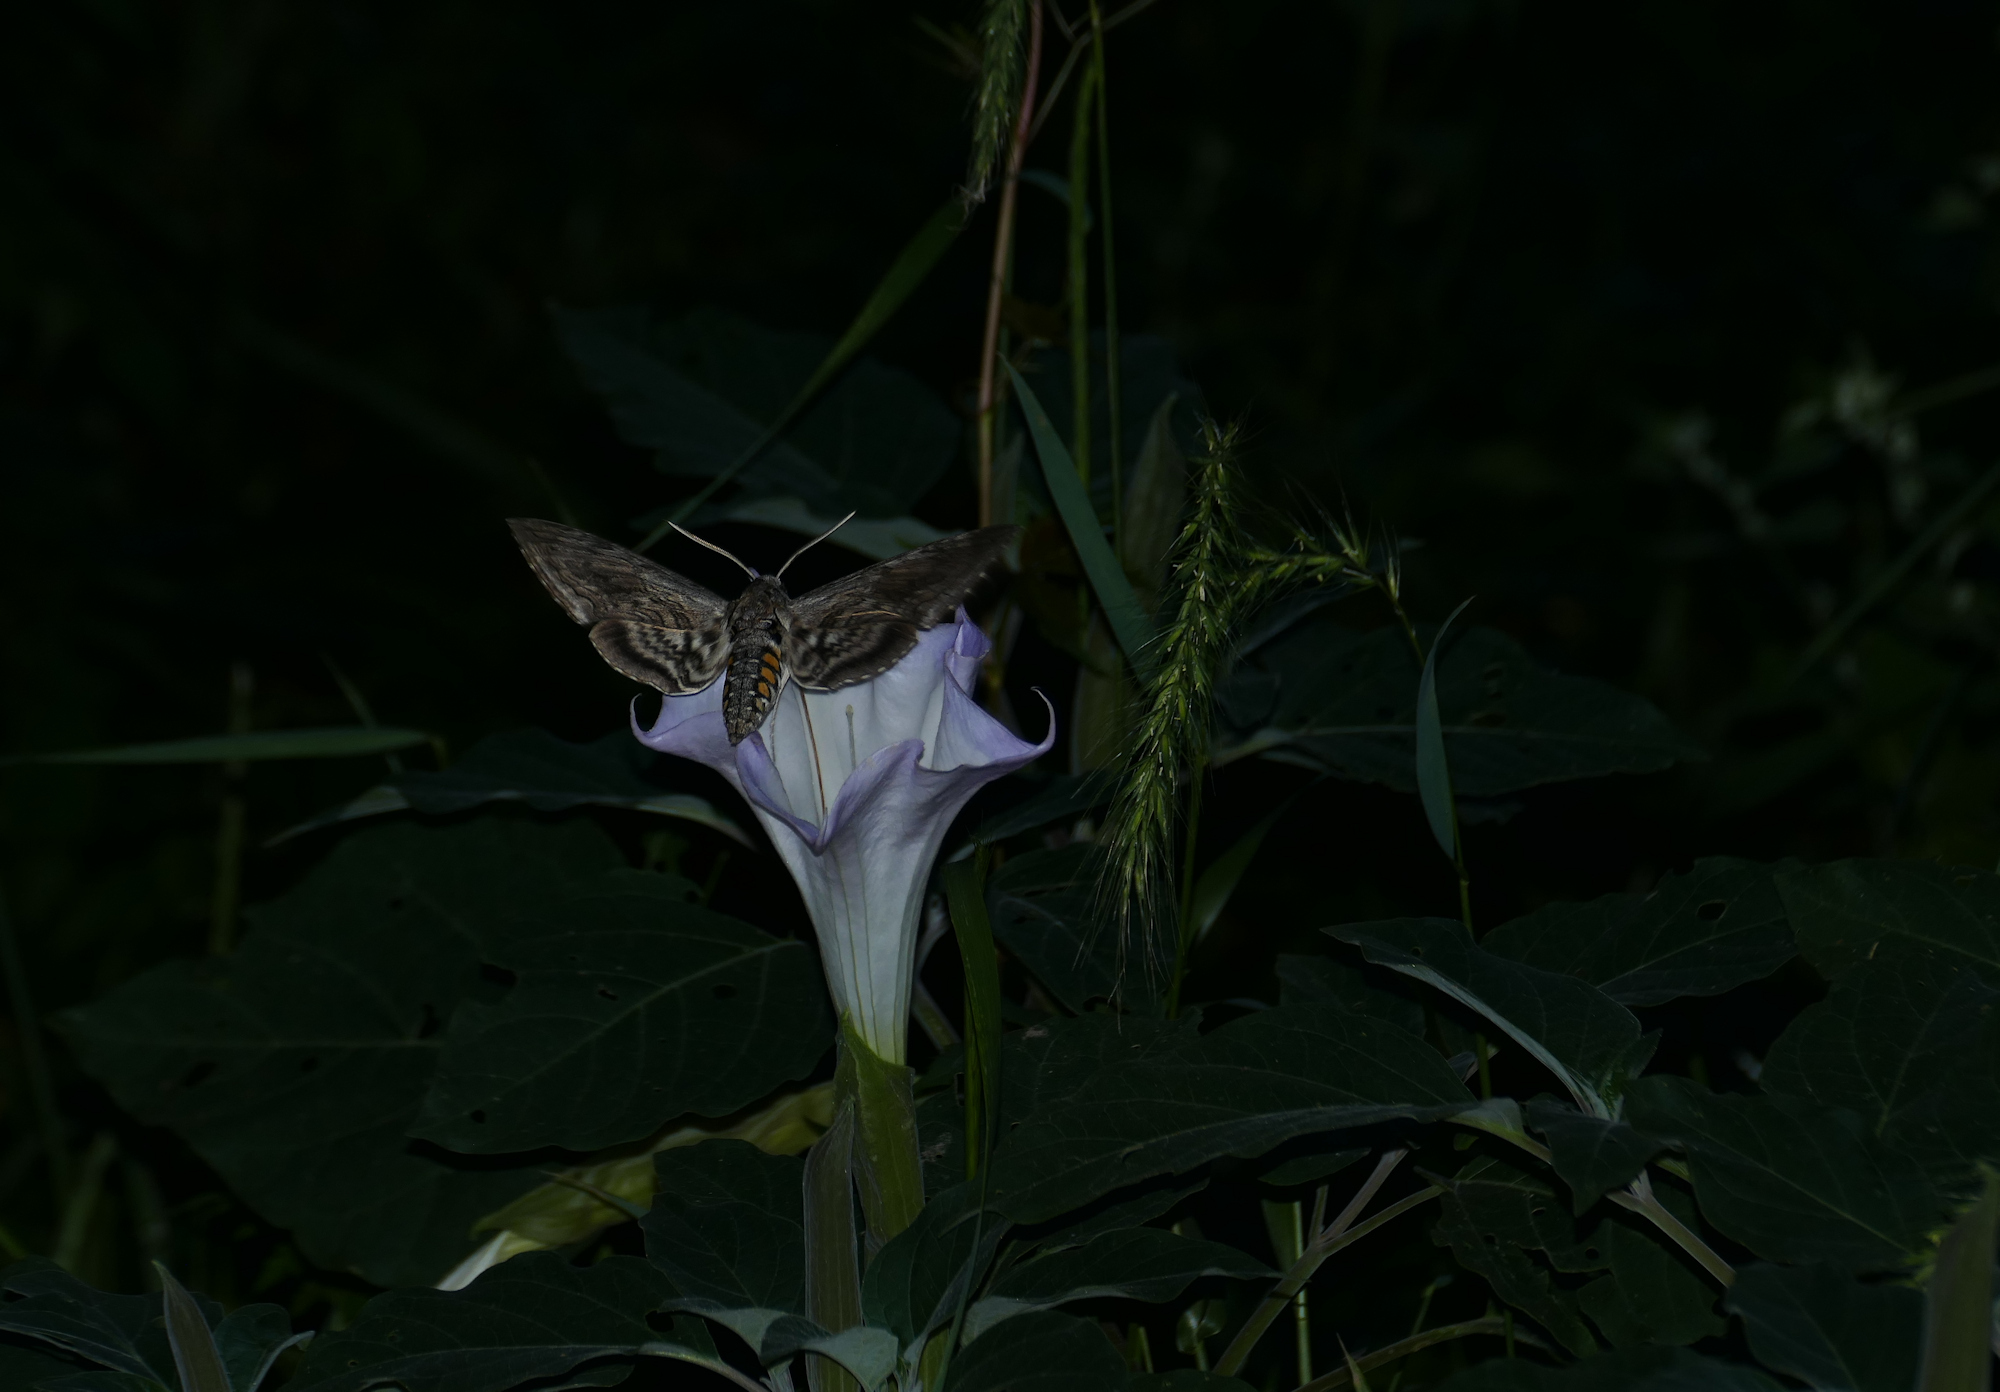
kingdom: Plantae
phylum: Tracheophyta
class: Magnoliopsida
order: Solanales
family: Solanaceae
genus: Datura
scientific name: Datura wrightii
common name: Sacred thorn-apple
